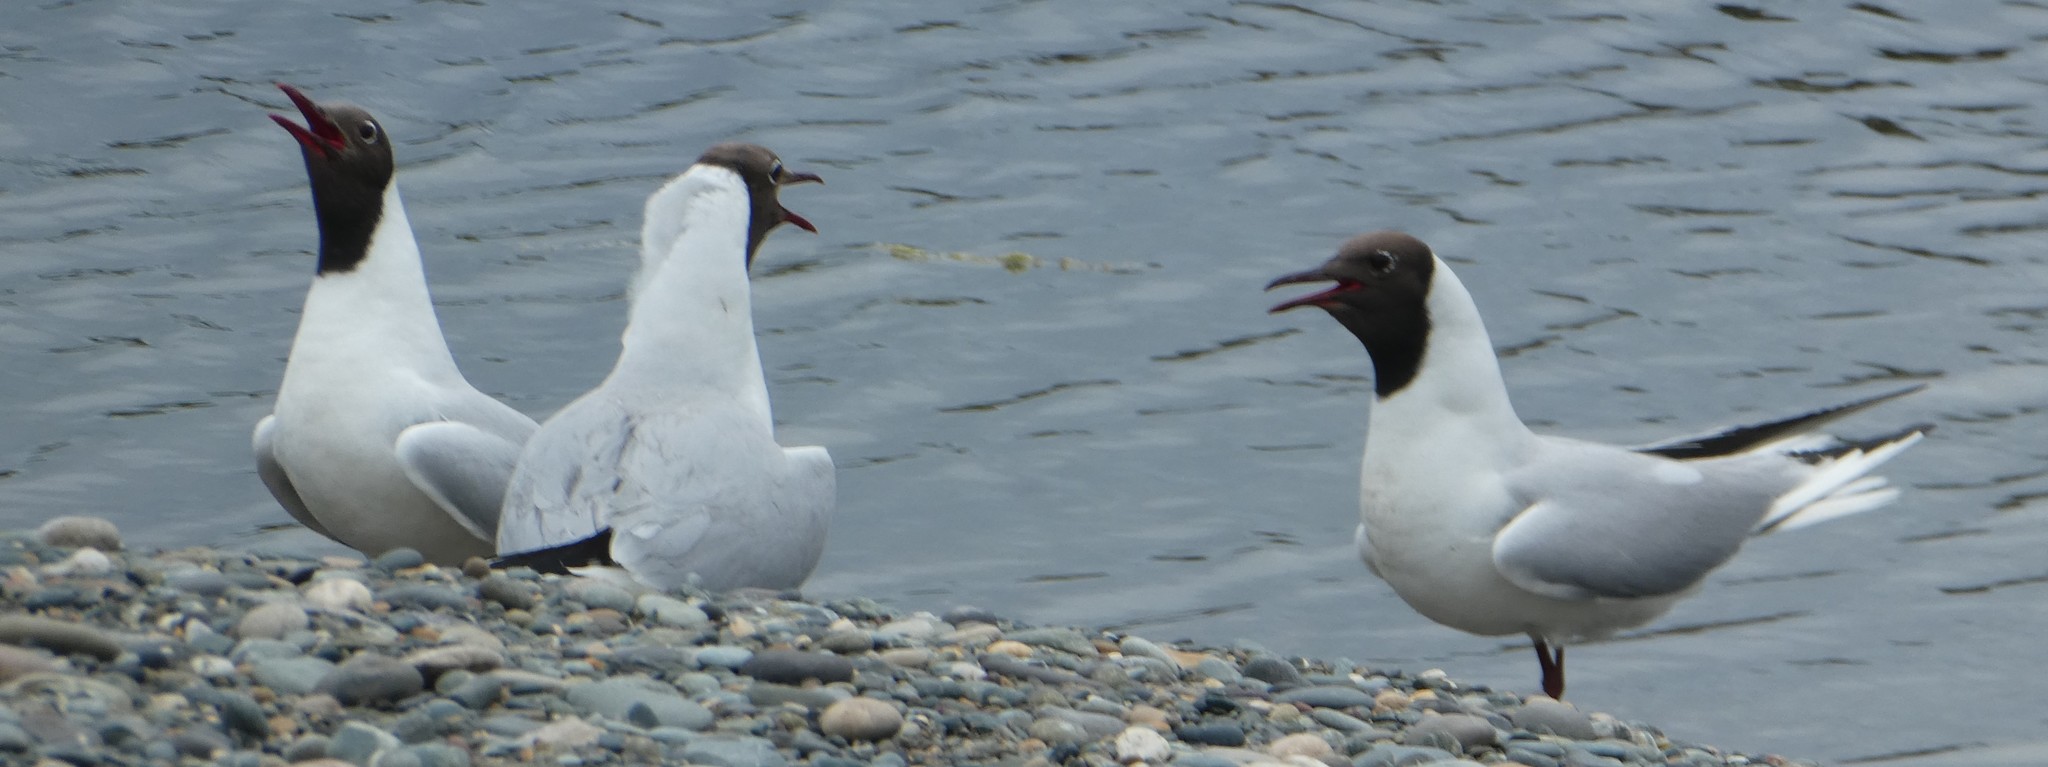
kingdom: Animalia
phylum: Chordata
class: Aves
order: Charadriiformes
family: Laridae
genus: Chroicocephalus
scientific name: Chroicocephalus ridibundus
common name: Black-headed gull
